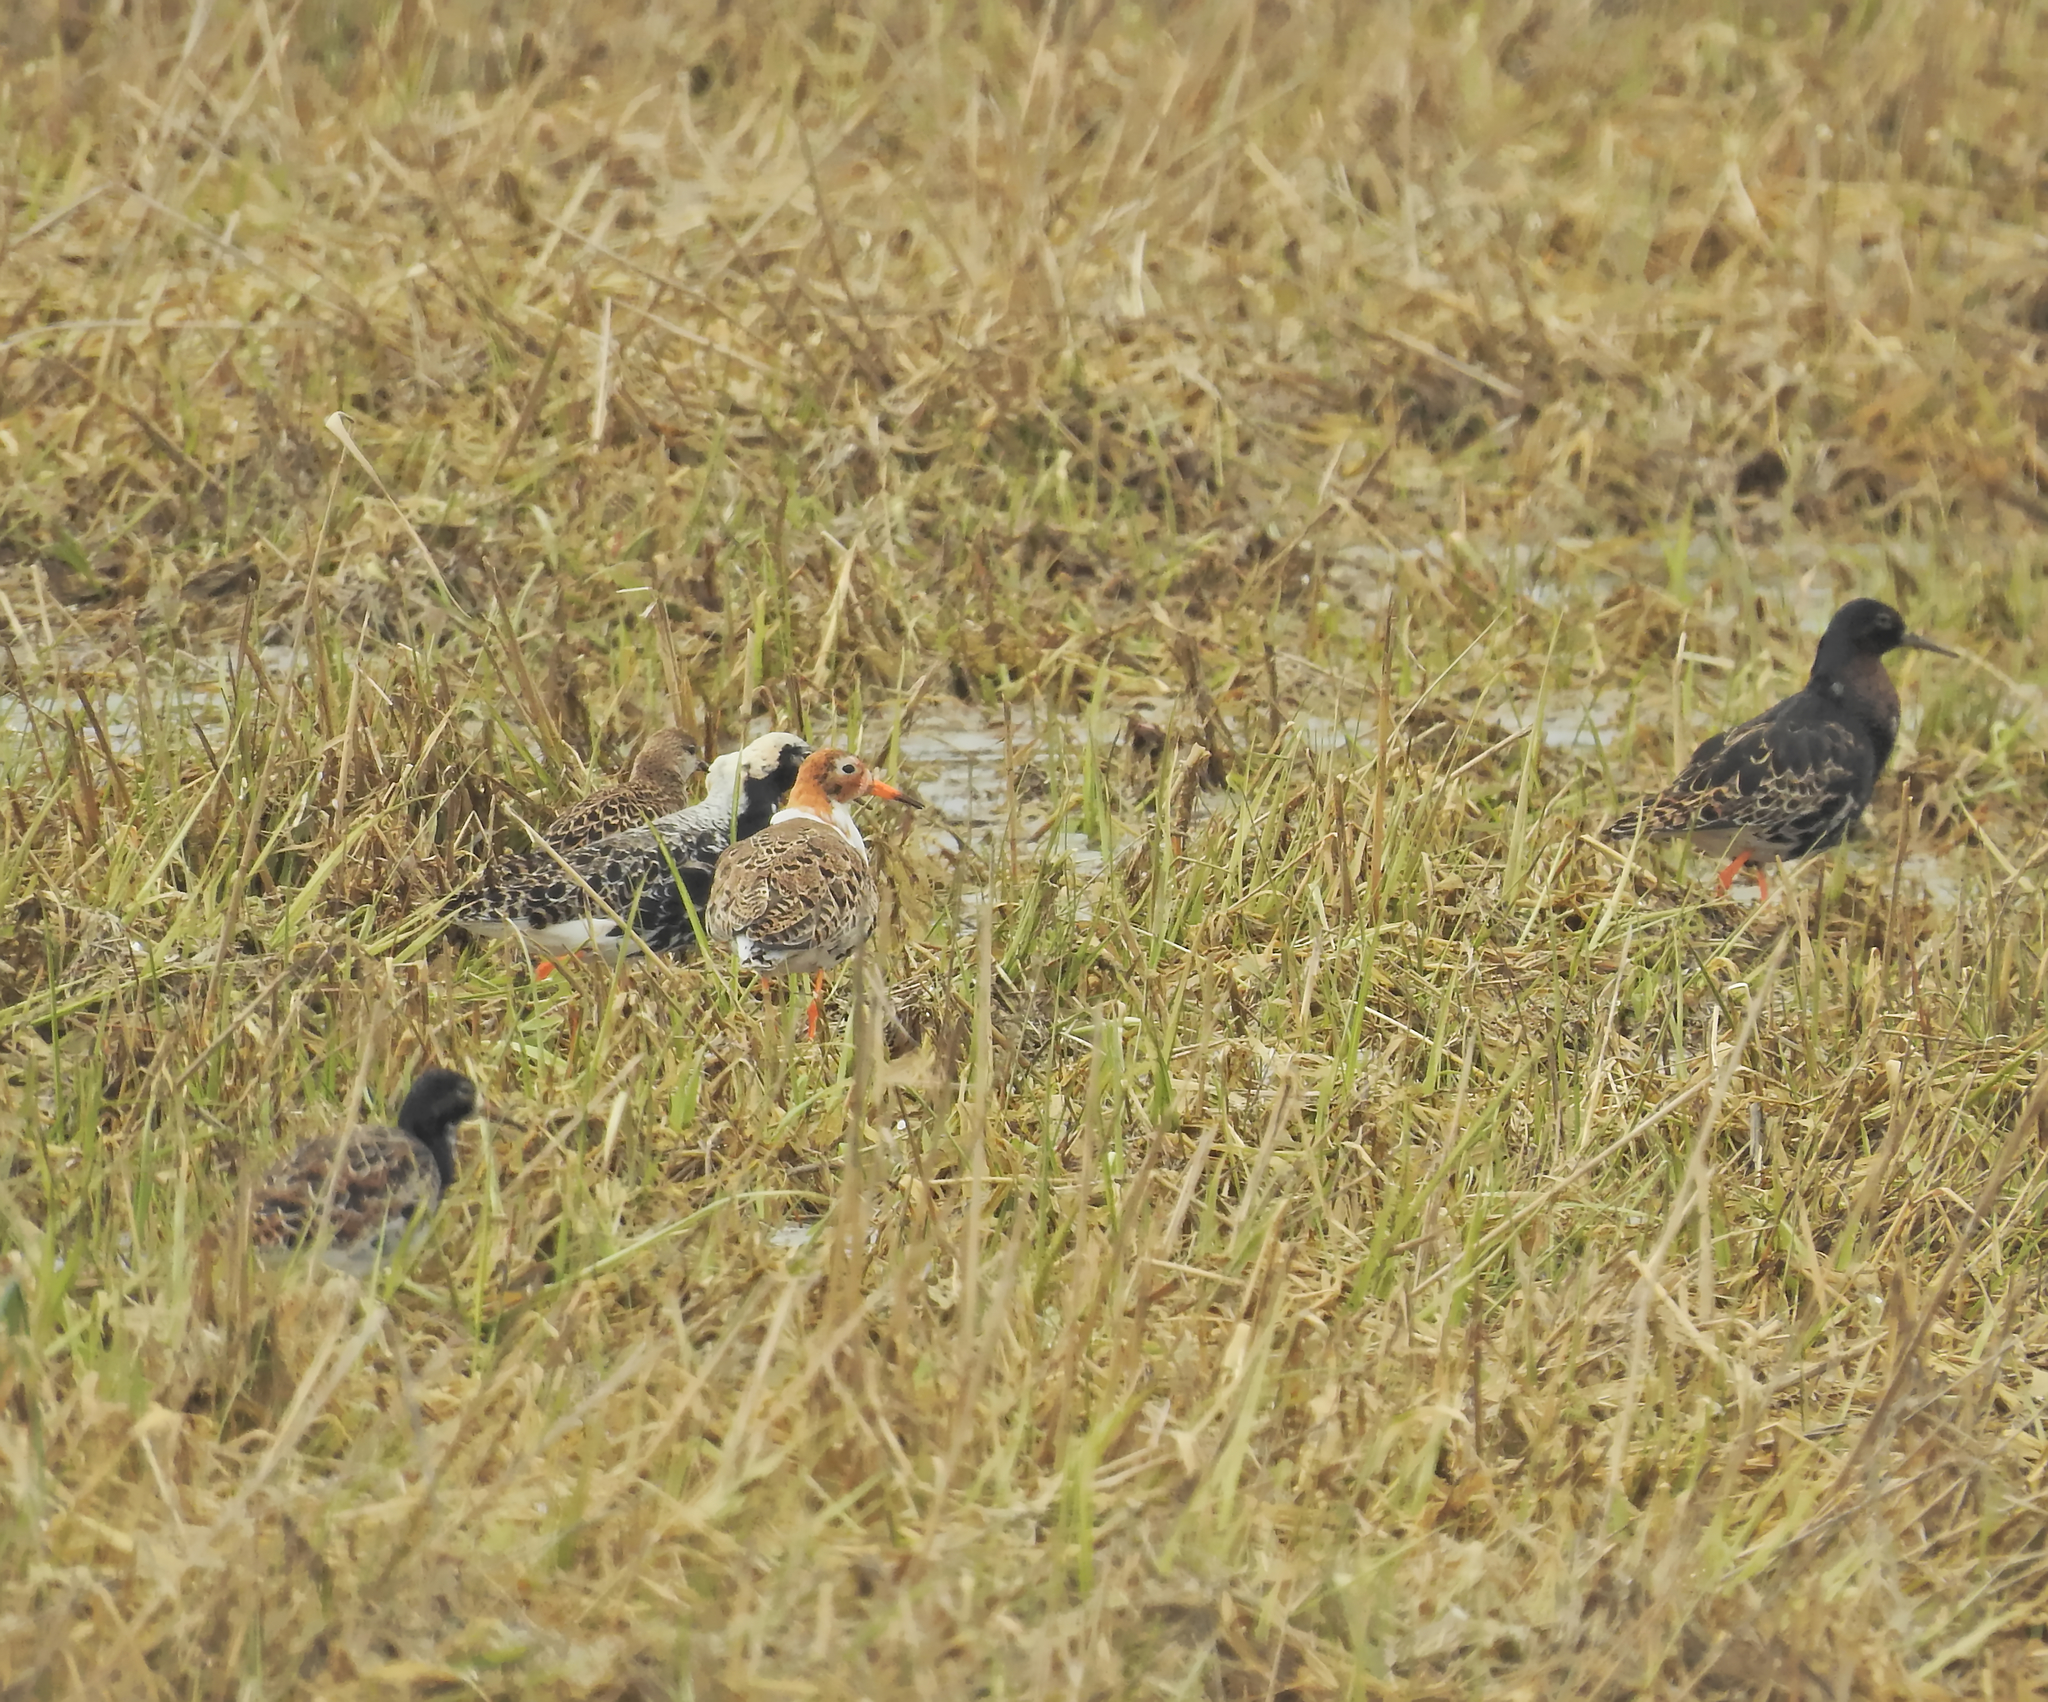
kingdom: Animalia
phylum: Chordata
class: Aves
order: Charadriiformes
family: Scolopacidae
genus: Calidris
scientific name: Calidris pugnax
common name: Ruff
